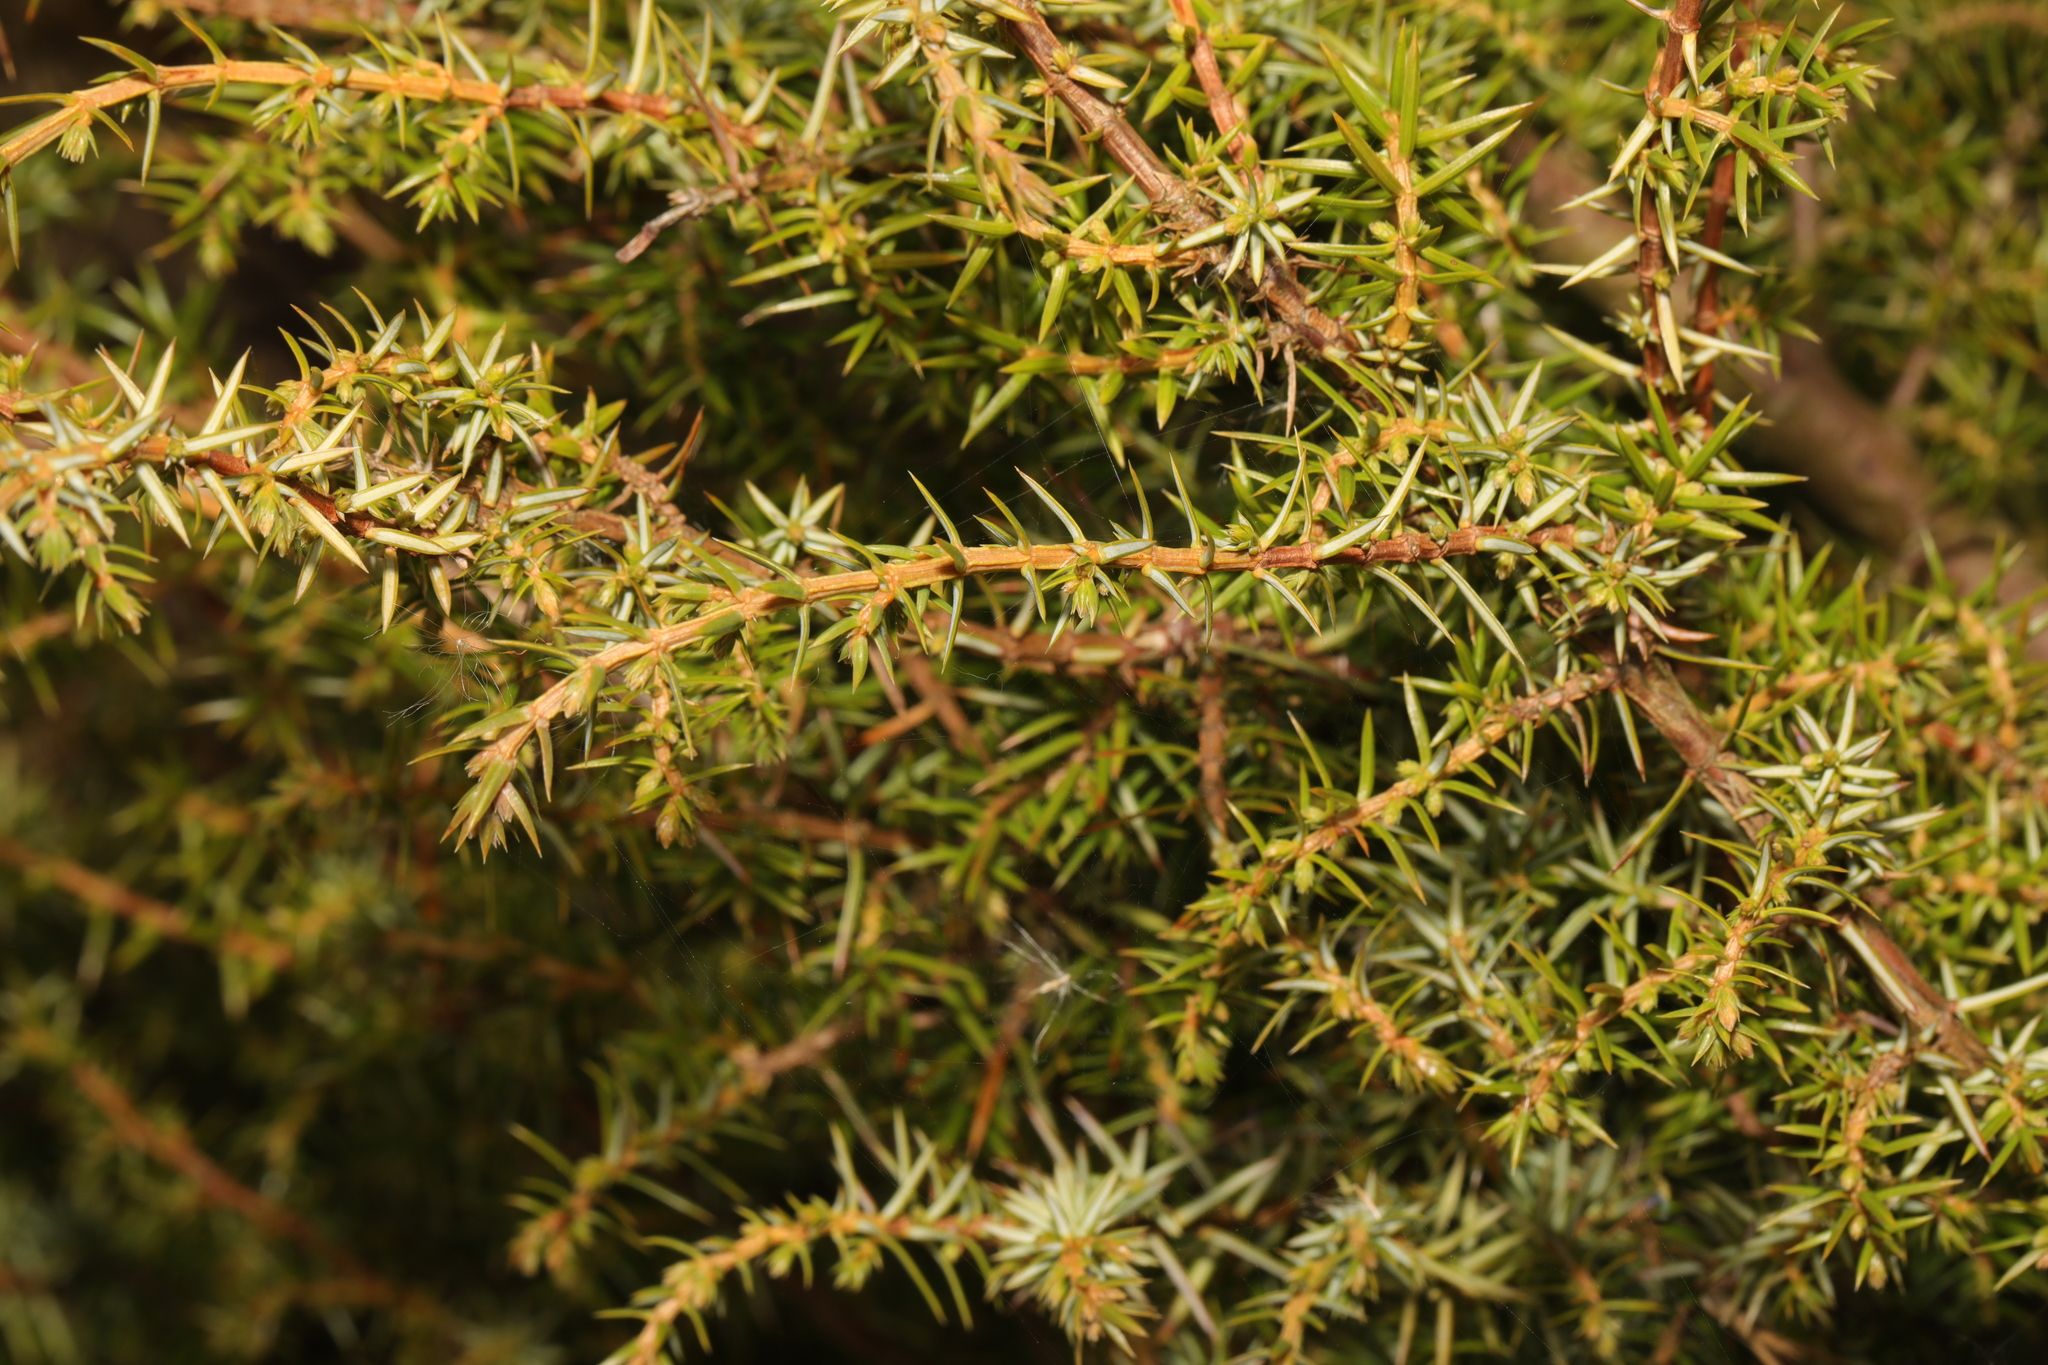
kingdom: Plantae
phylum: Tracheophyta
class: Pinopsida
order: Pinales
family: Cupressaceae
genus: Juniperus
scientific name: Juniperus communis
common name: Common juniper
